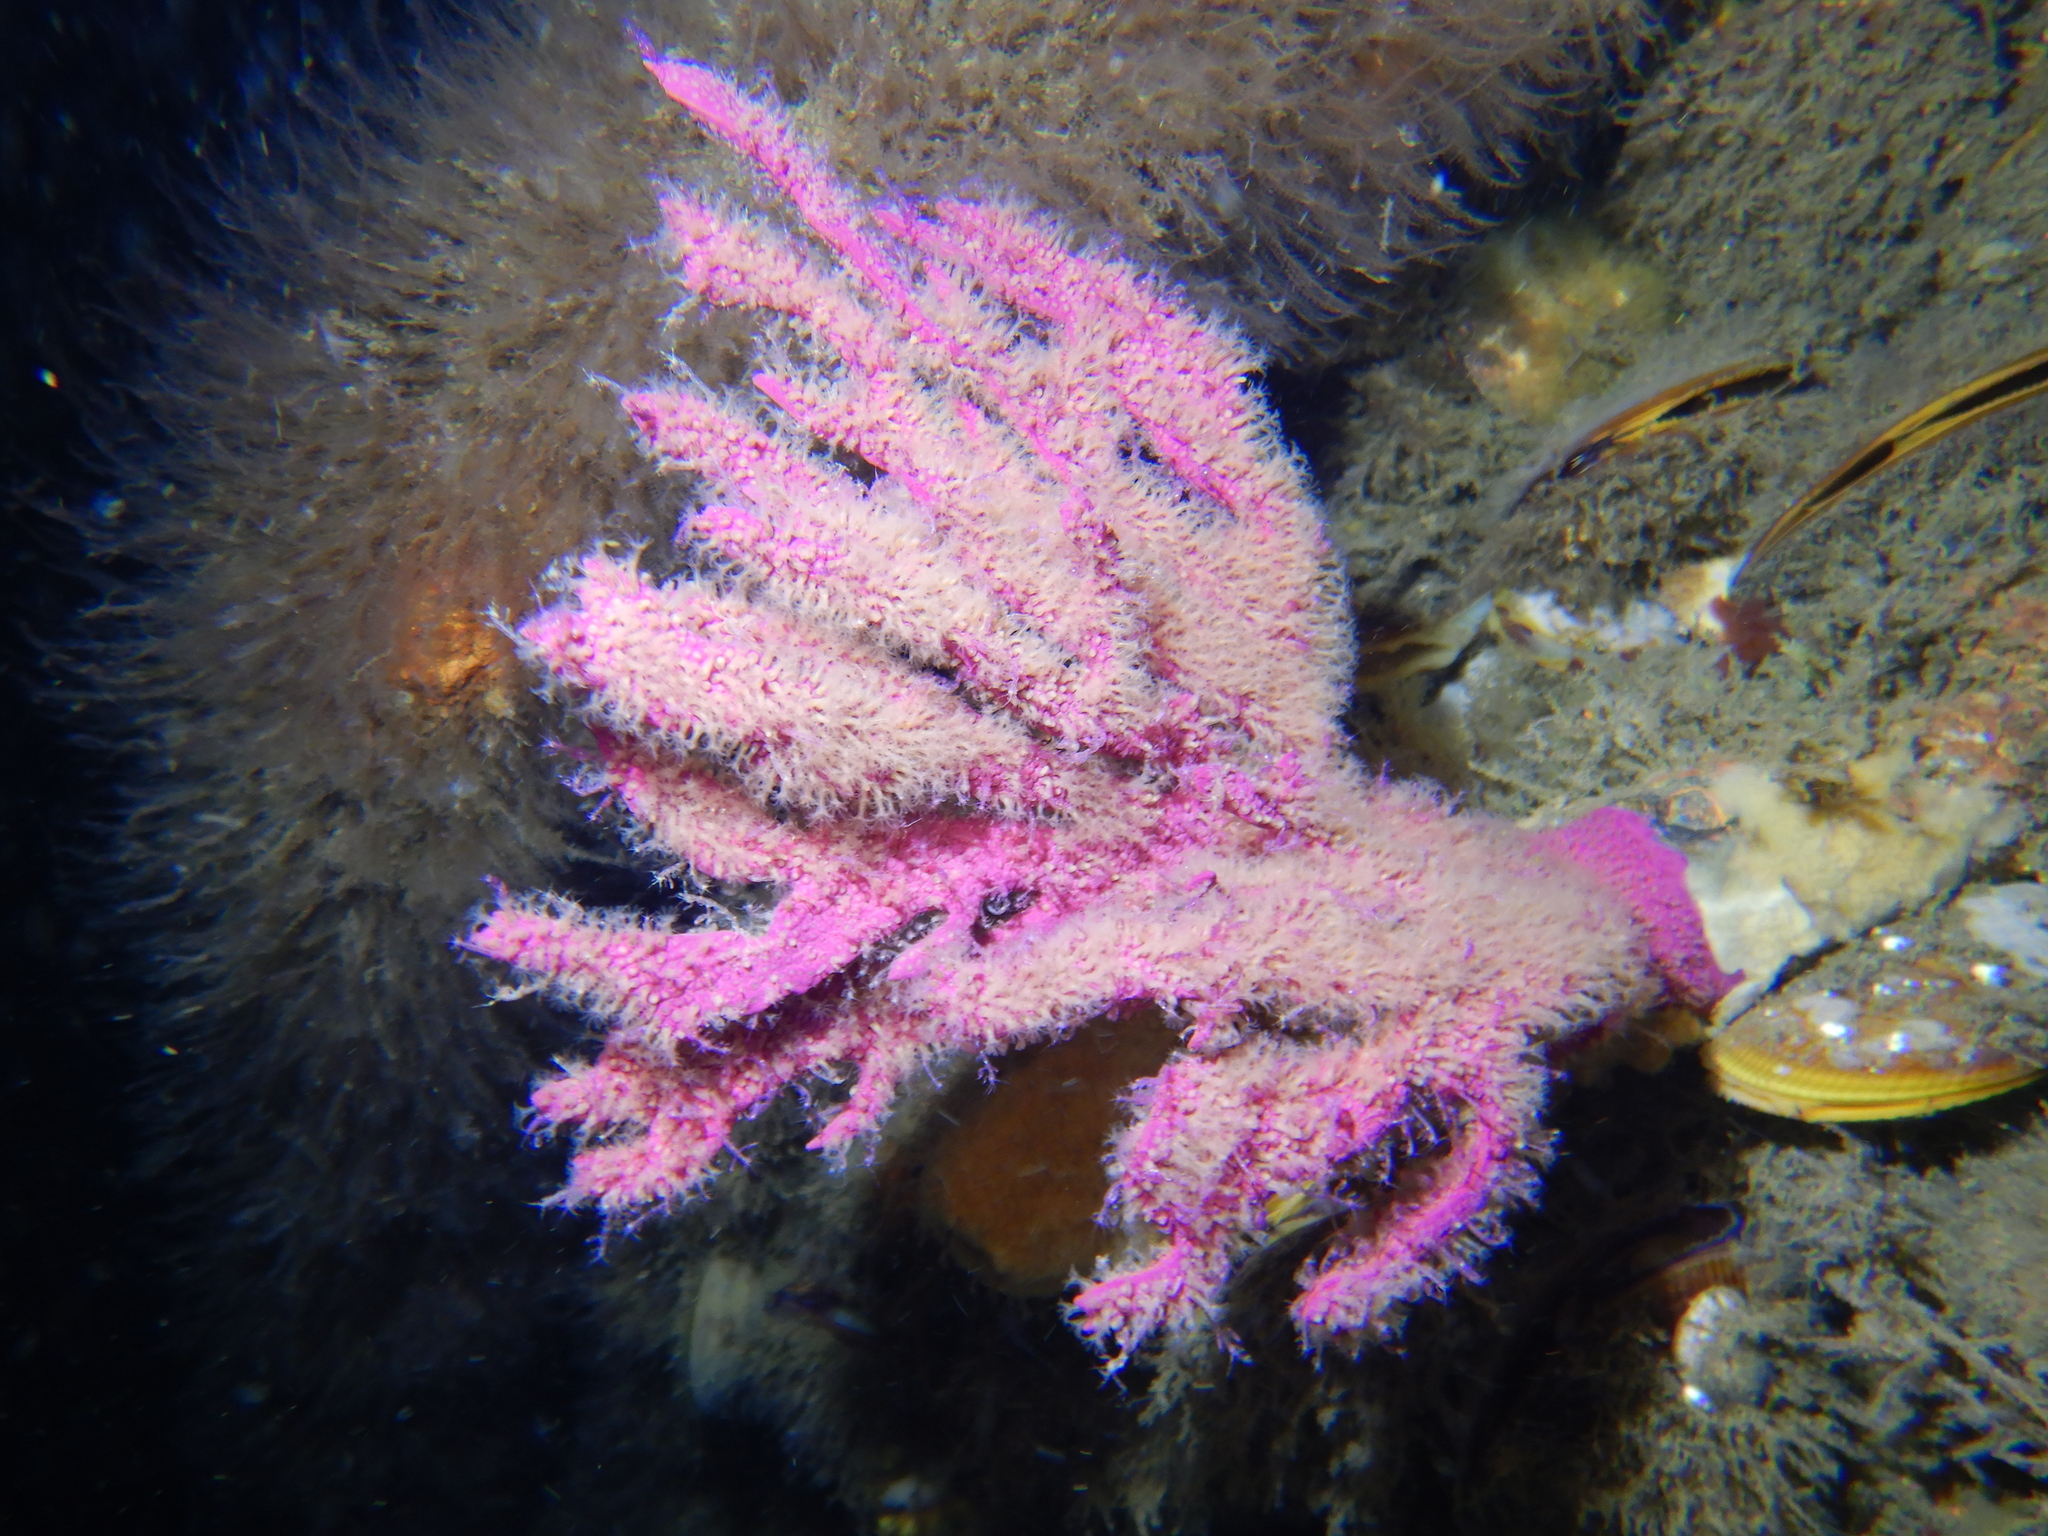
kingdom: Animalia
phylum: Cnidaria
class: Anthozoa
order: Malacalcyonacea
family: Gorgoniidae
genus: Phycogorgia
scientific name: Phycogorgia fucata
